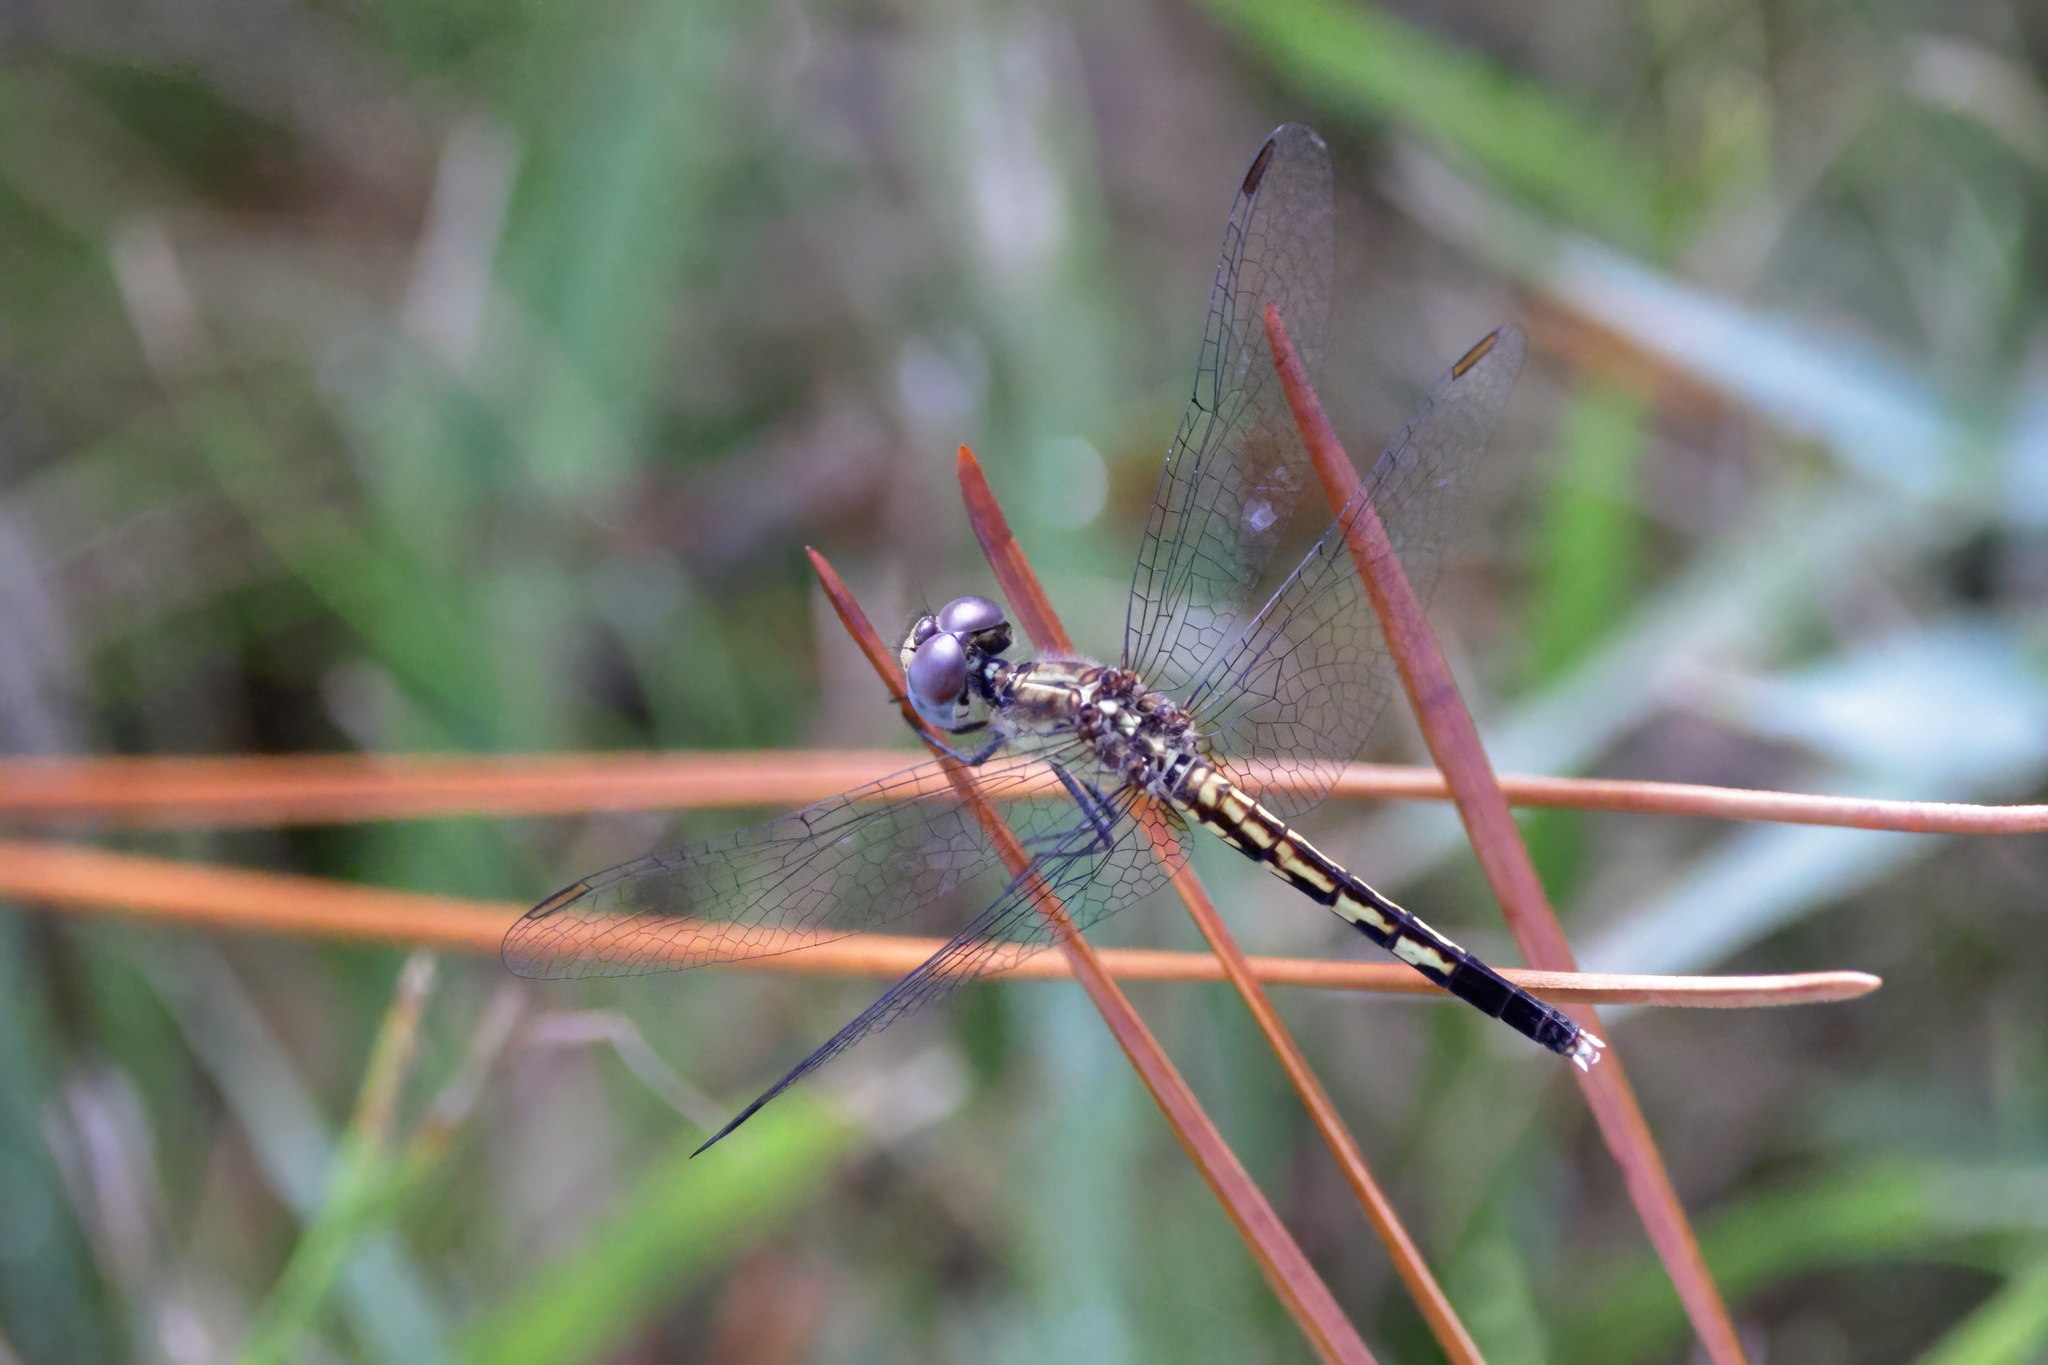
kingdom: Animalia
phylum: Arthropoda
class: Insecta
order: Odonata
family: Libellulidae
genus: Pachydiplax
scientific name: Pachydiplax longipennis
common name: Blue dasher
